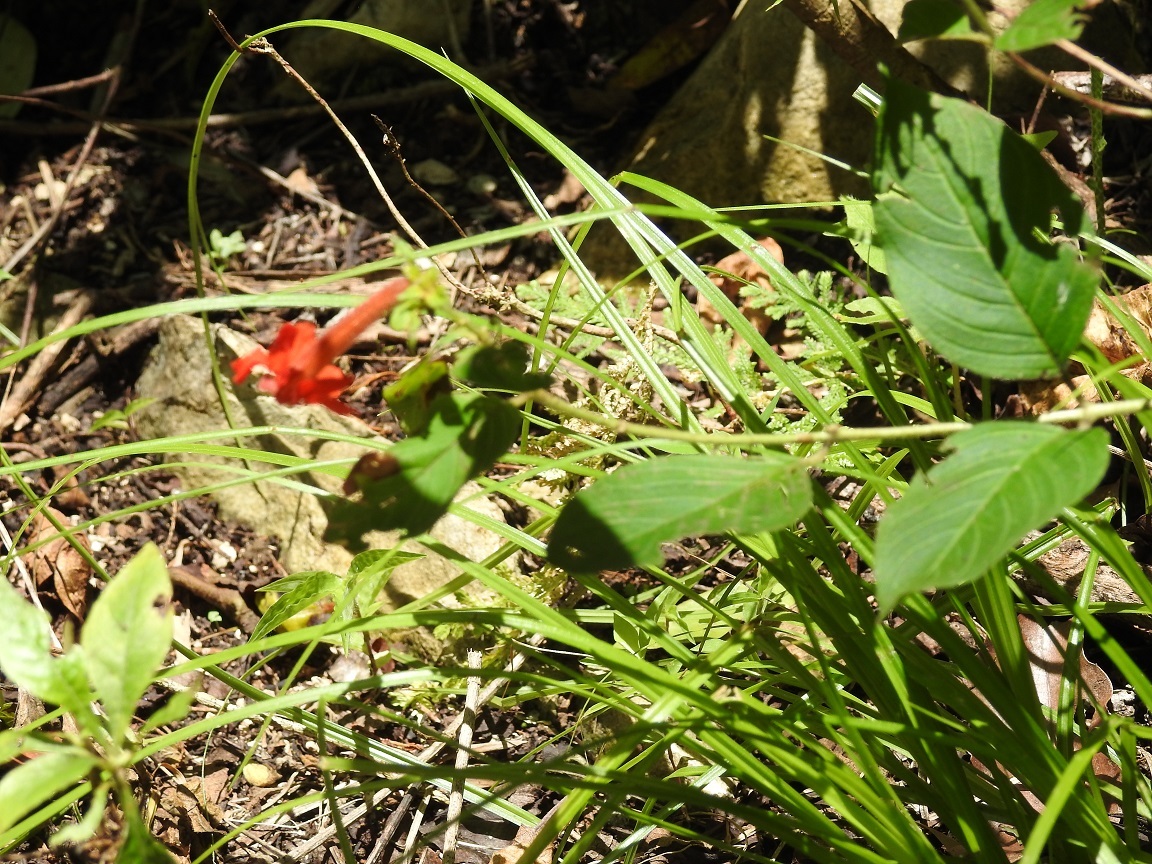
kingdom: Plantae
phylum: Tracheophyta
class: Magnoliopsida
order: Myrtales
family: Lythraceae
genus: Cuphea
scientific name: Cuphea intermedia
